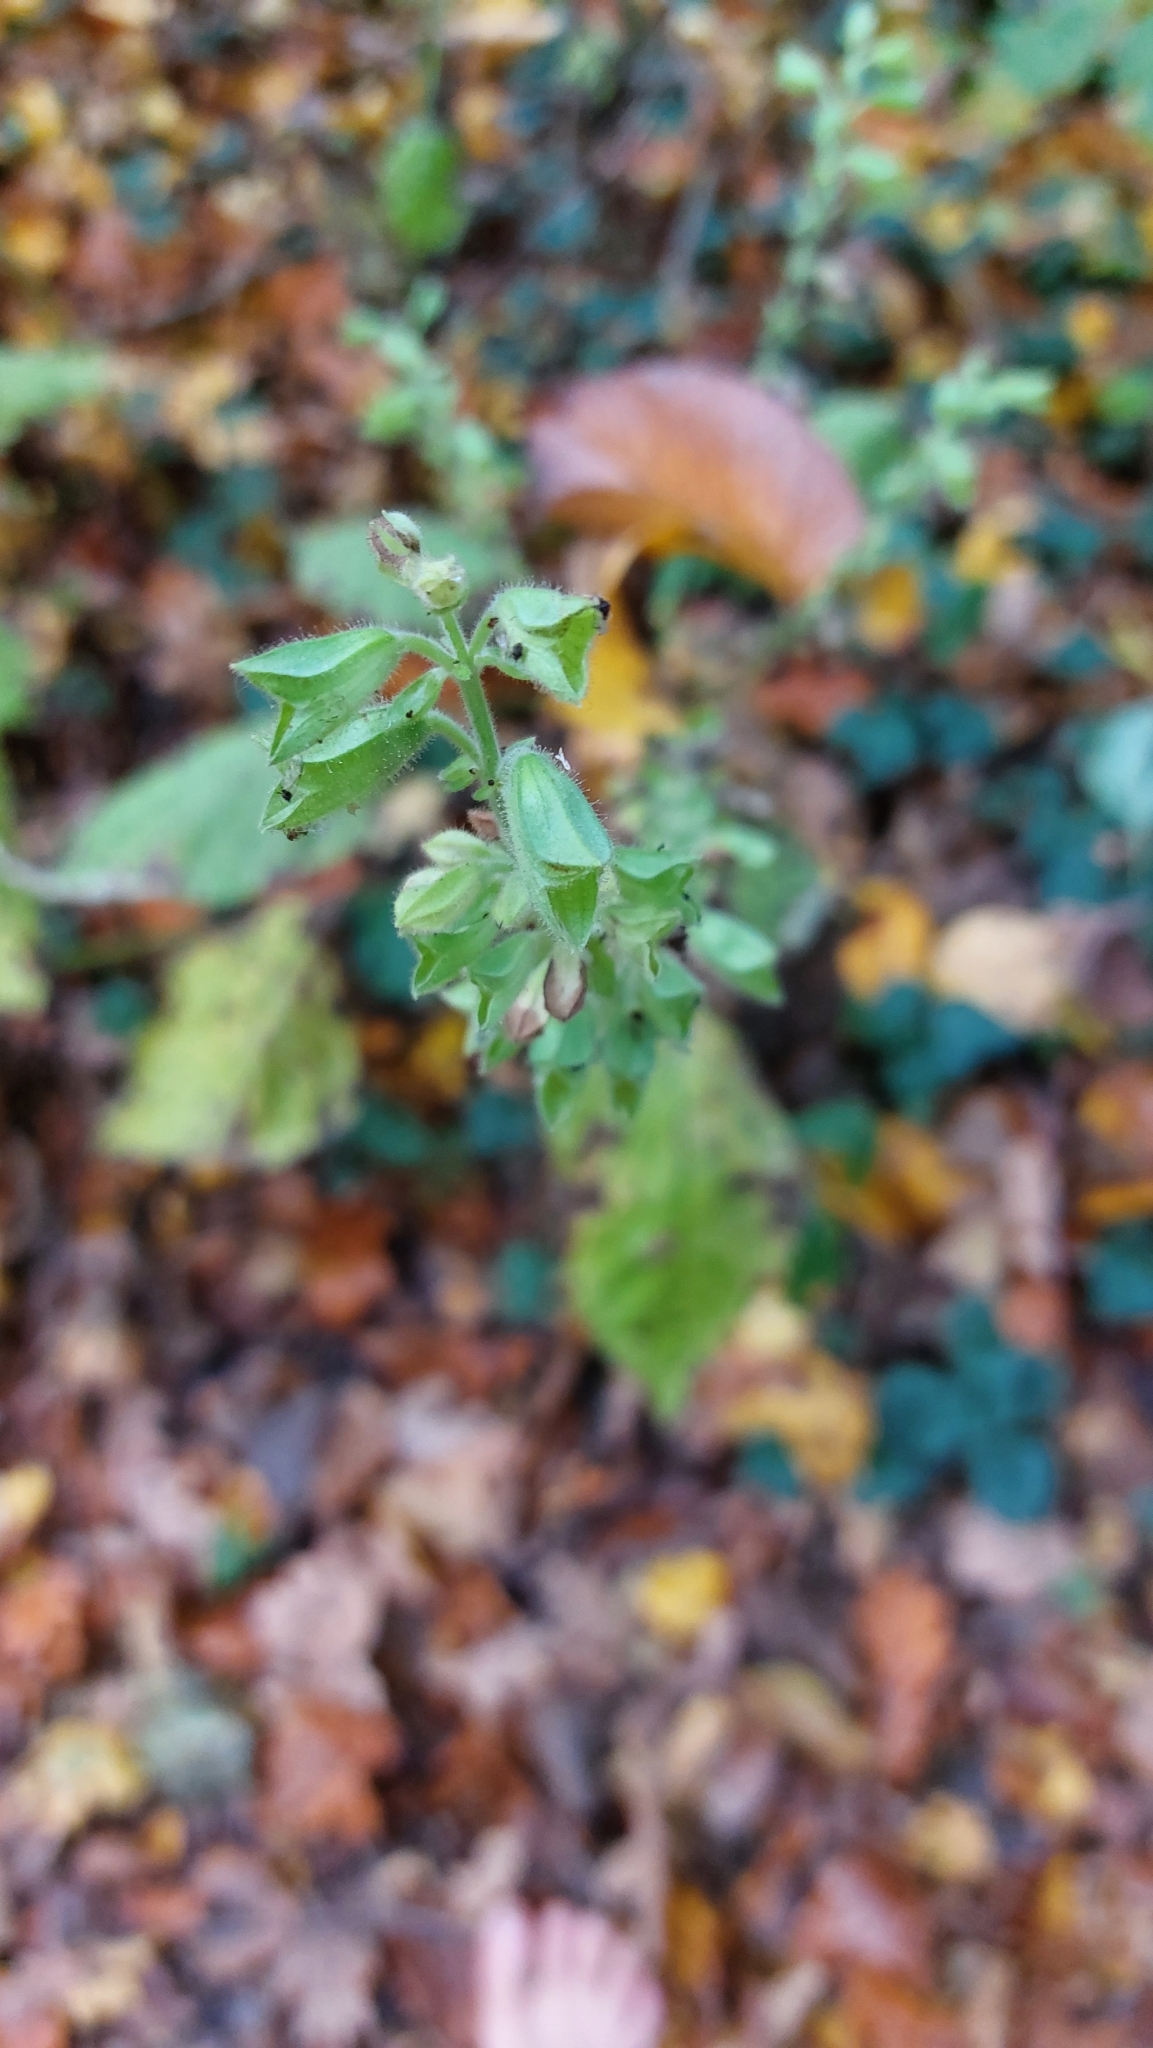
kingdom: Plantae
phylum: Tracheophyta
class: Magnoliopsida
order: Lamiales
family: Lamiaceae
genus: Salvia
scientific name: Salvia glutinosa
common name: Sticky clary
